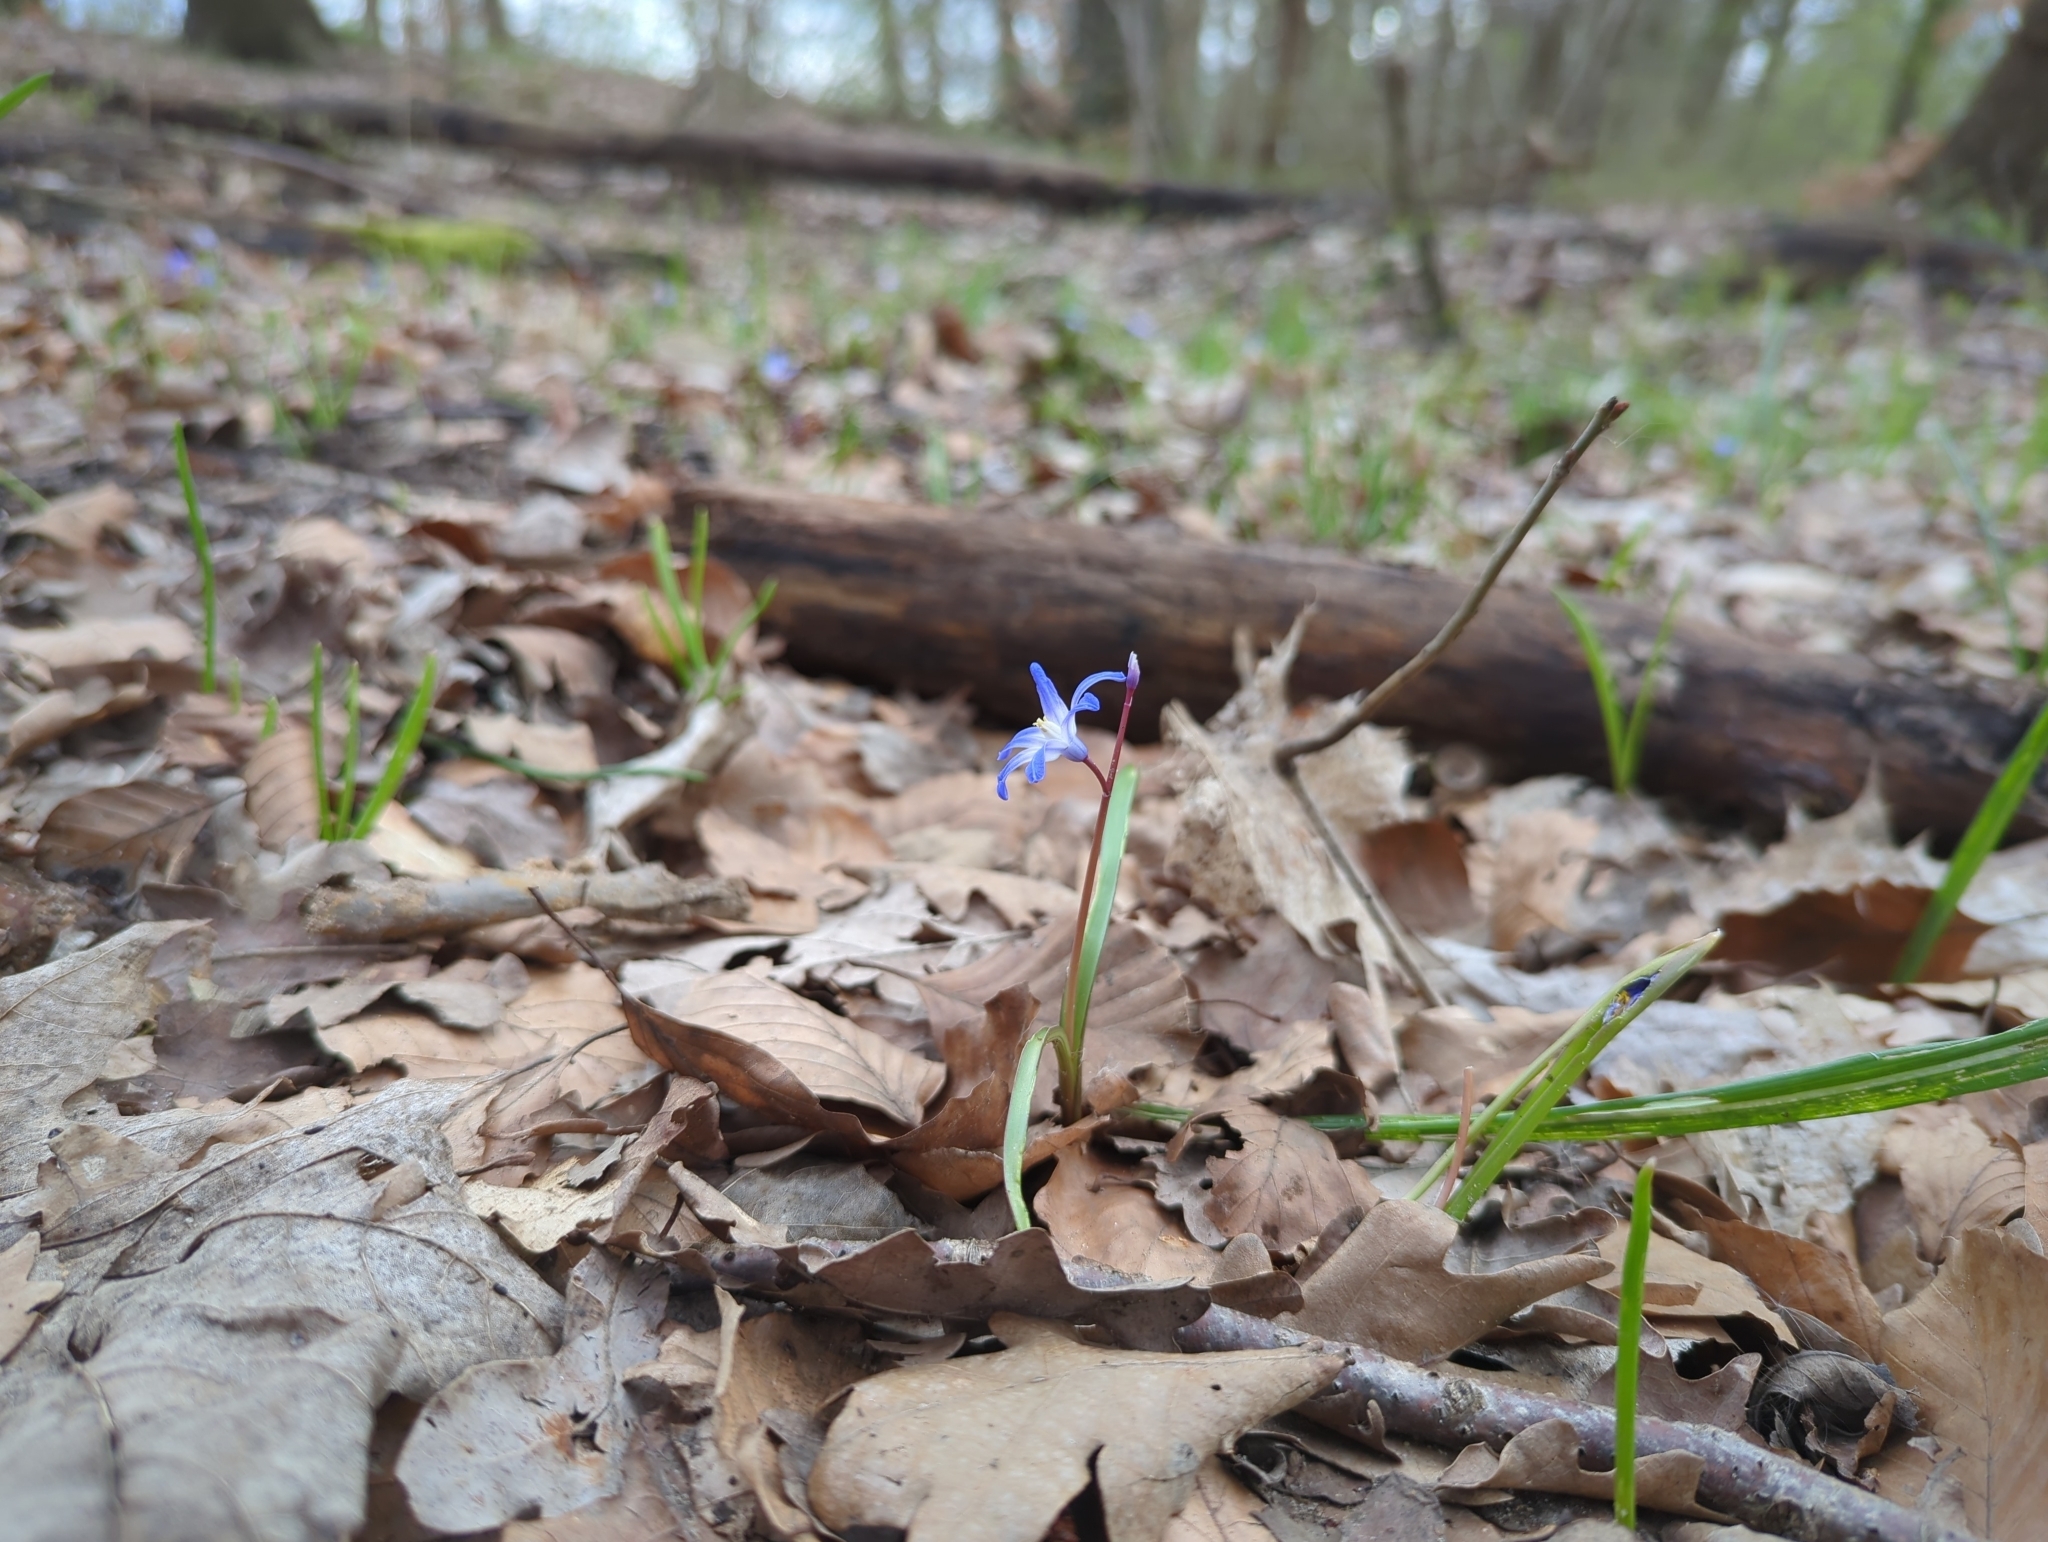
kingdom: Plantae
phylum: Tracheophyta
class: Liliopsida
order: Asparagales
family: Asparagaceae
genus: Scilla
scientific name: Scilla luciliae
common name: Boissier's glory-of-the-snow
